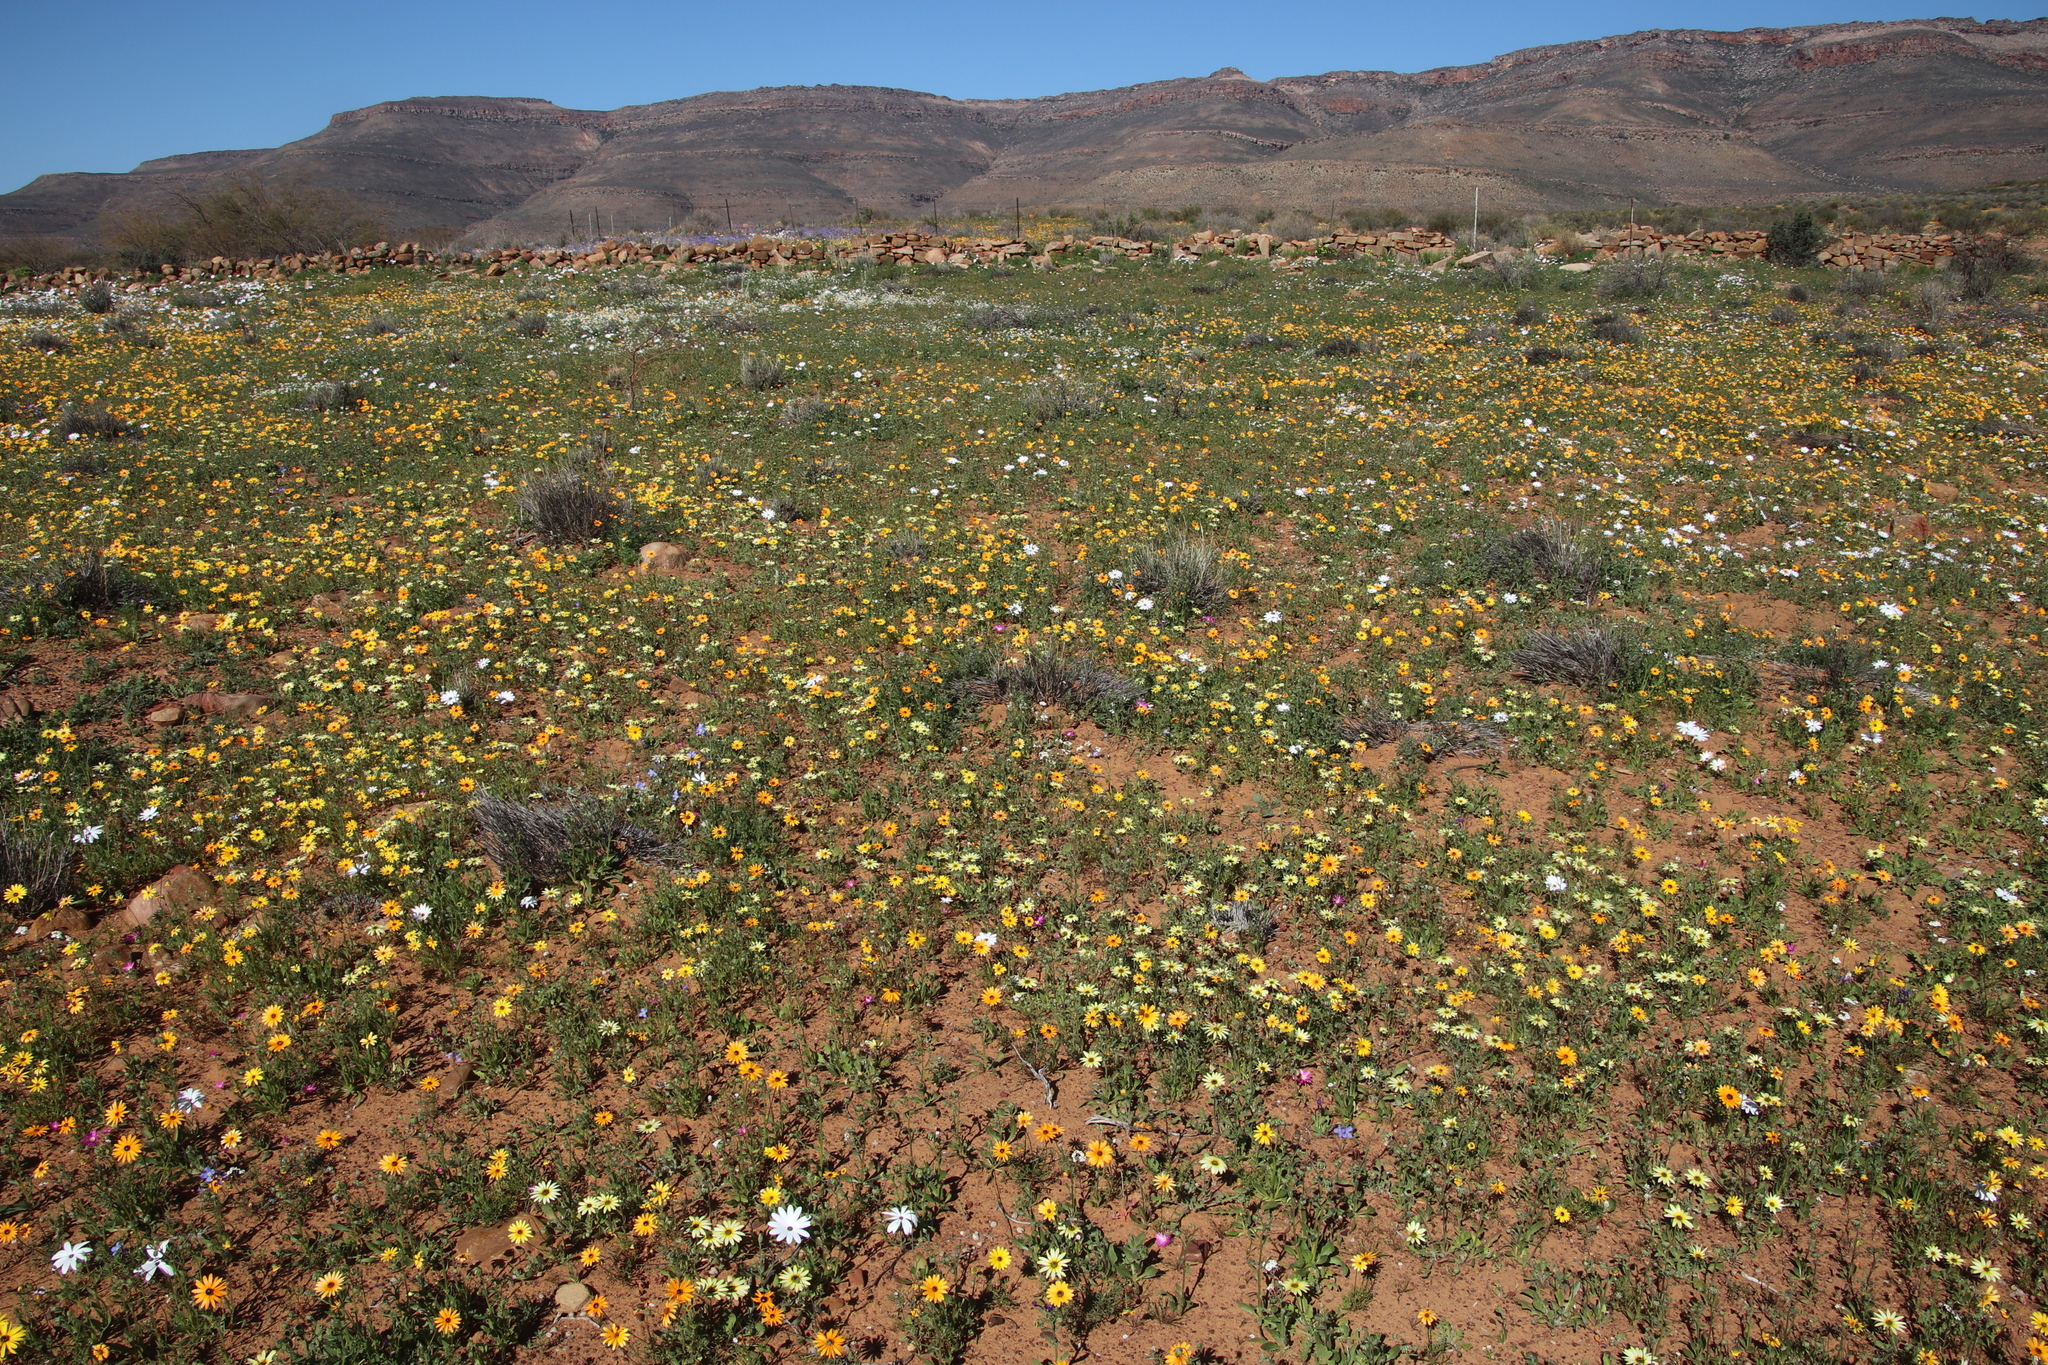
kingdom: Plantae
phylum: Tracheophyta
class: Magnoliopsida
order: Asterales
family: Asteraceae
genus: Dimorphotheca
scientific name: Dimorphotheca pluvialis
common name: Weather prophet
